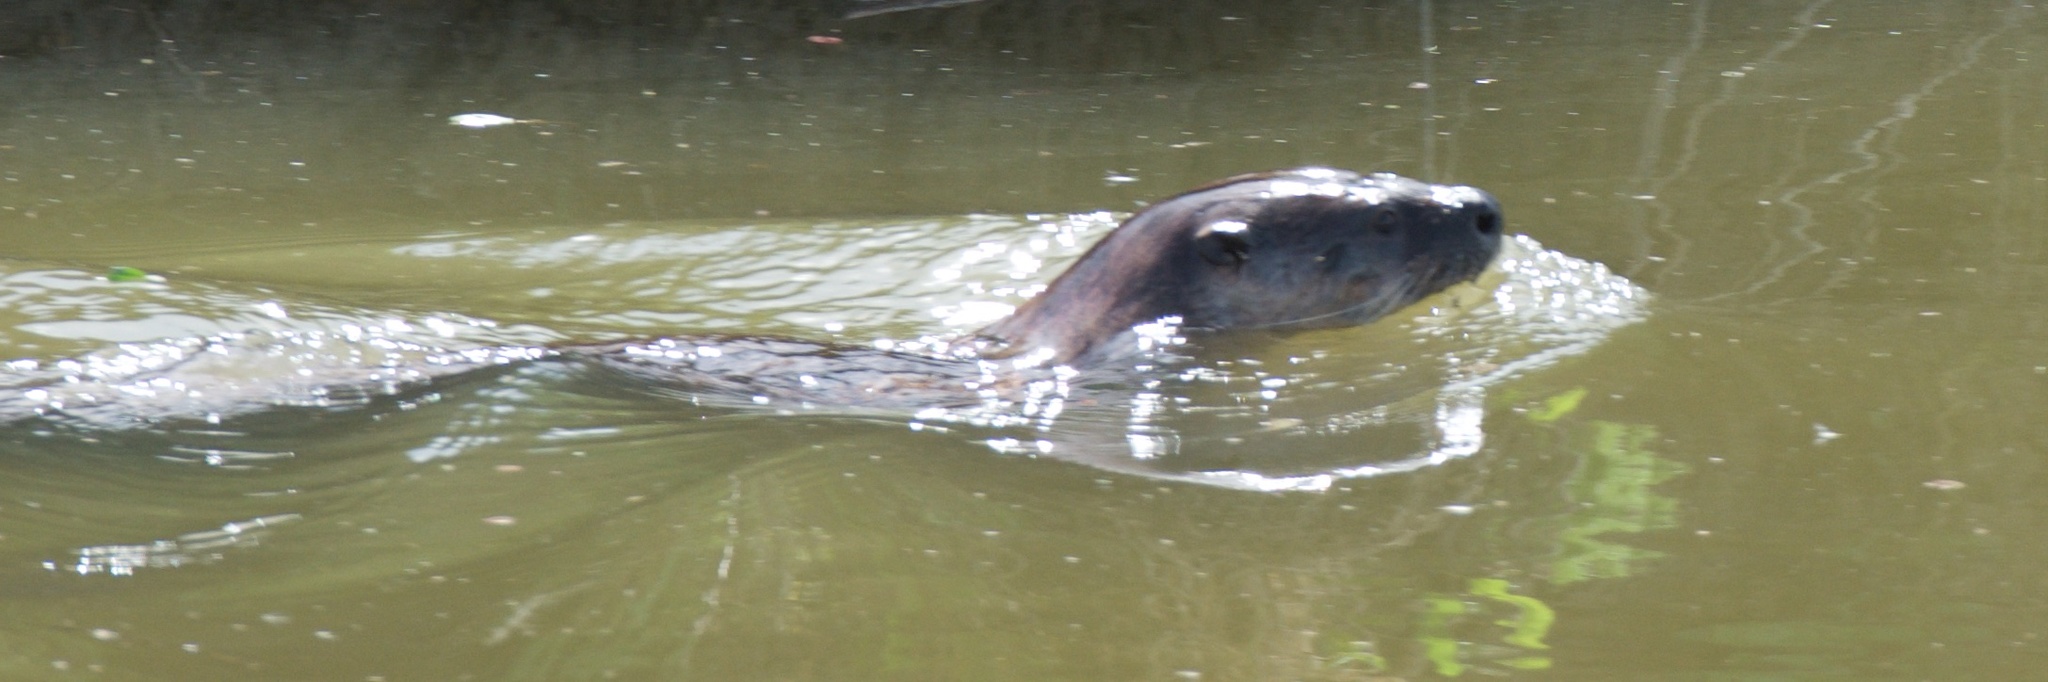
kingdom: Animalia
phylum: Chordata
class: Mammalia
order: Carnivora
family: Mustelidae
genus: Lontra
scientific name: Lontra canadensis
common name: North american river otter
